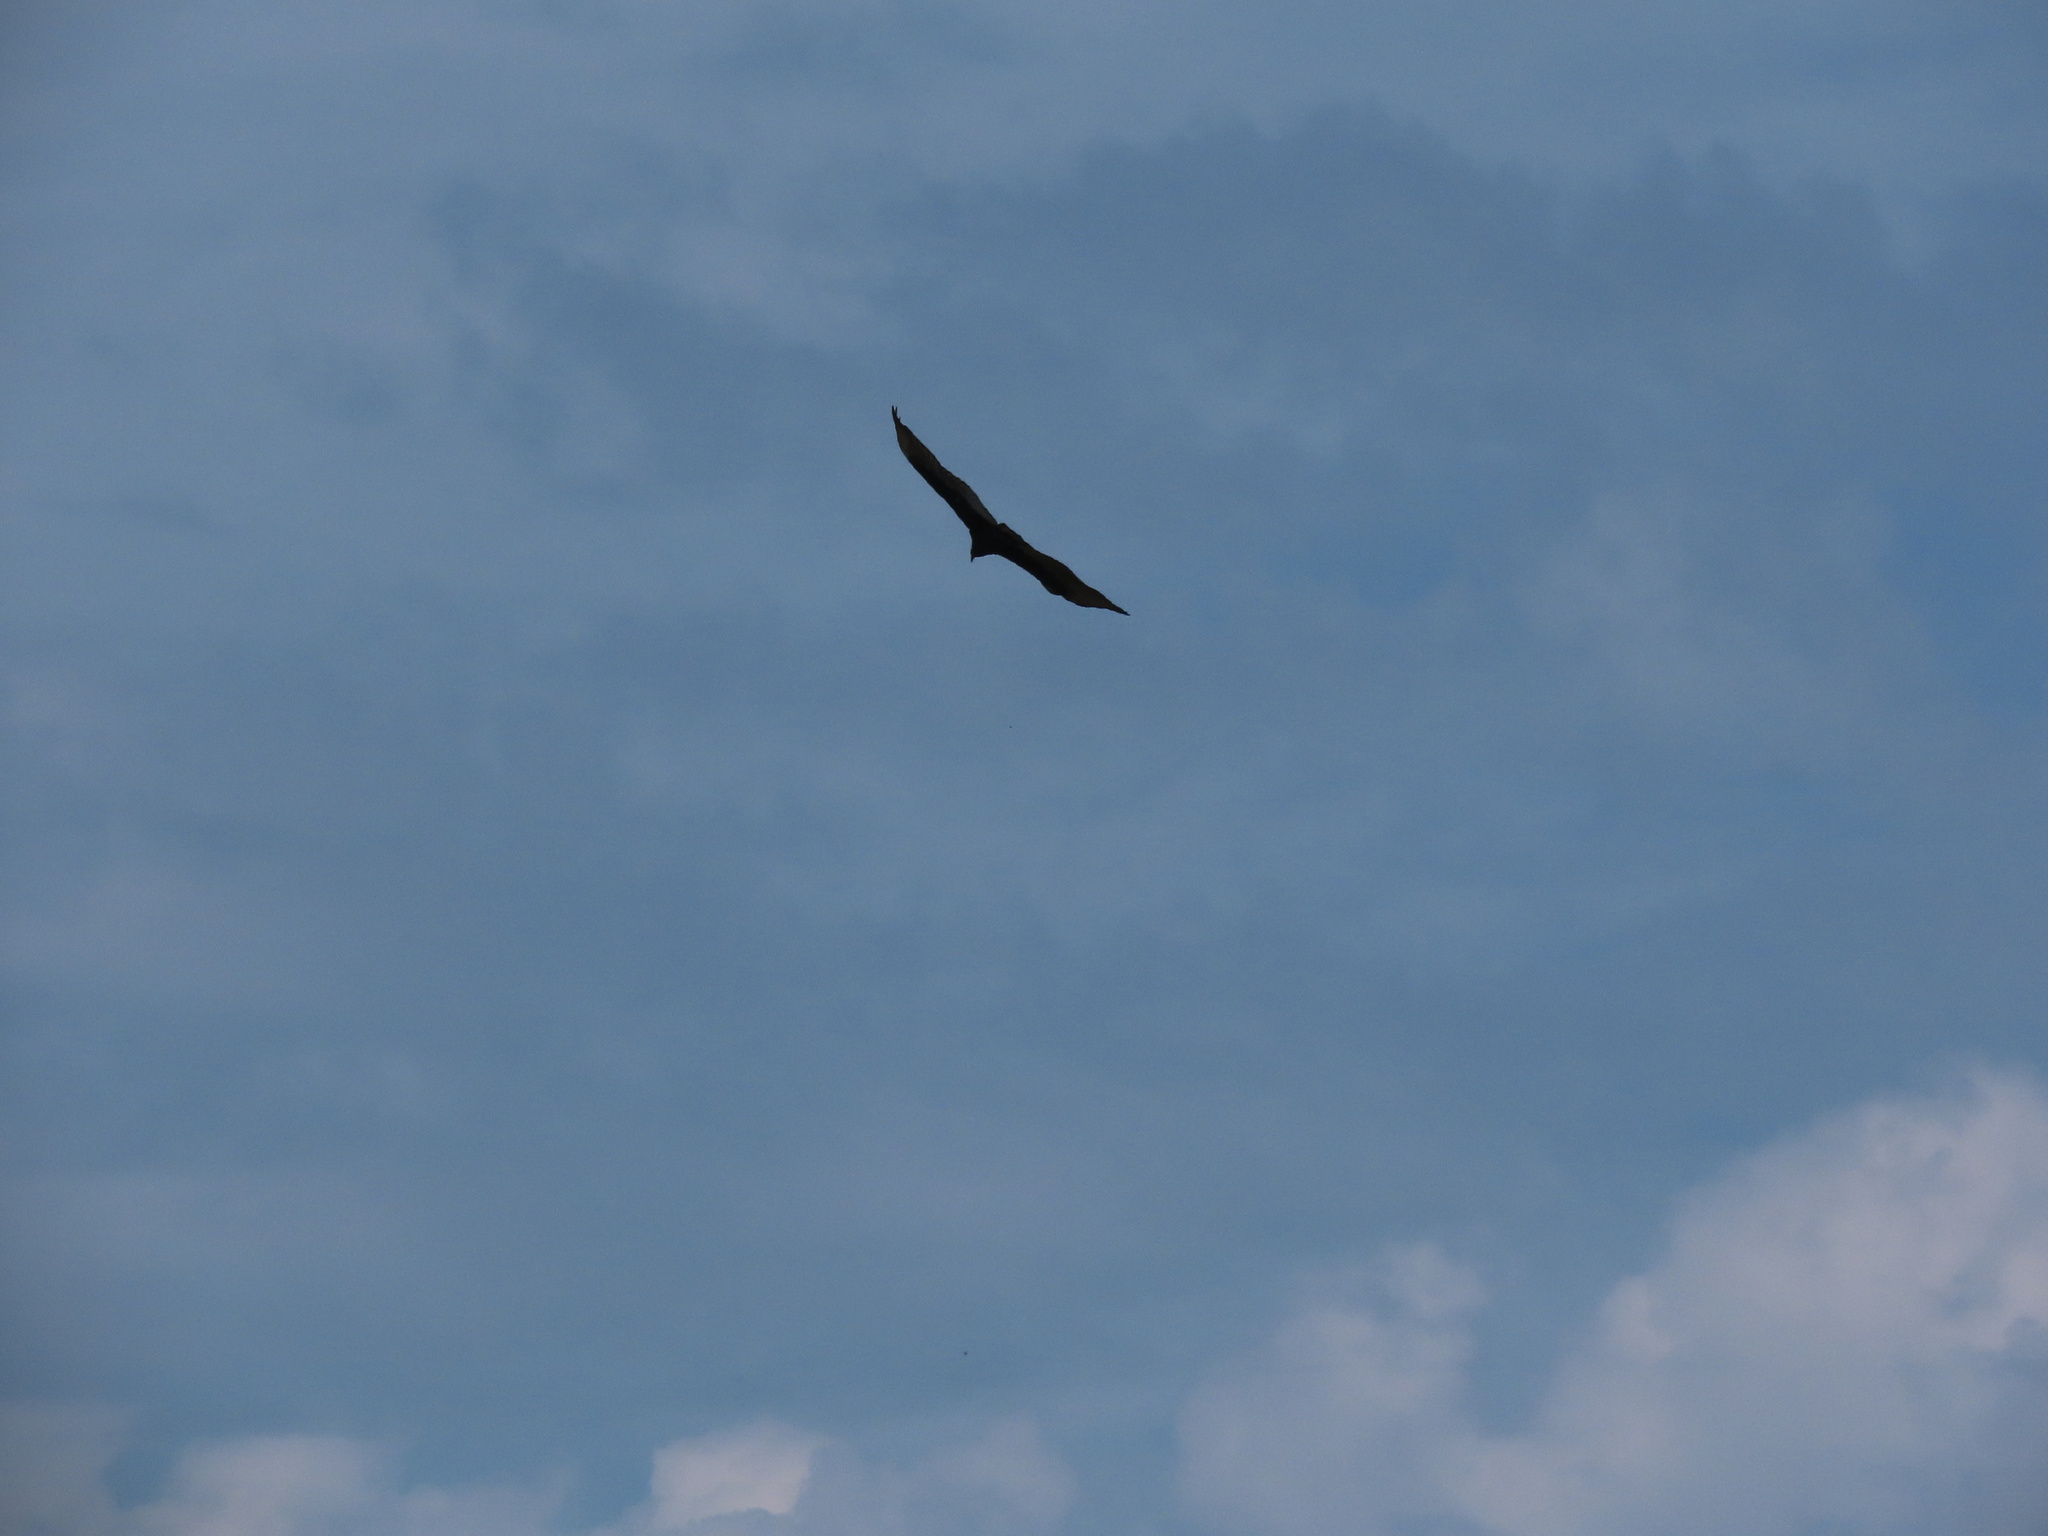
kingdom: Animalia
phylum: Chordata
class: Aves
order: Accipitriformes
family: Cathartidae
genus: Cathartes
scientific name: Cathartes aura
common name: Turkey vulture
